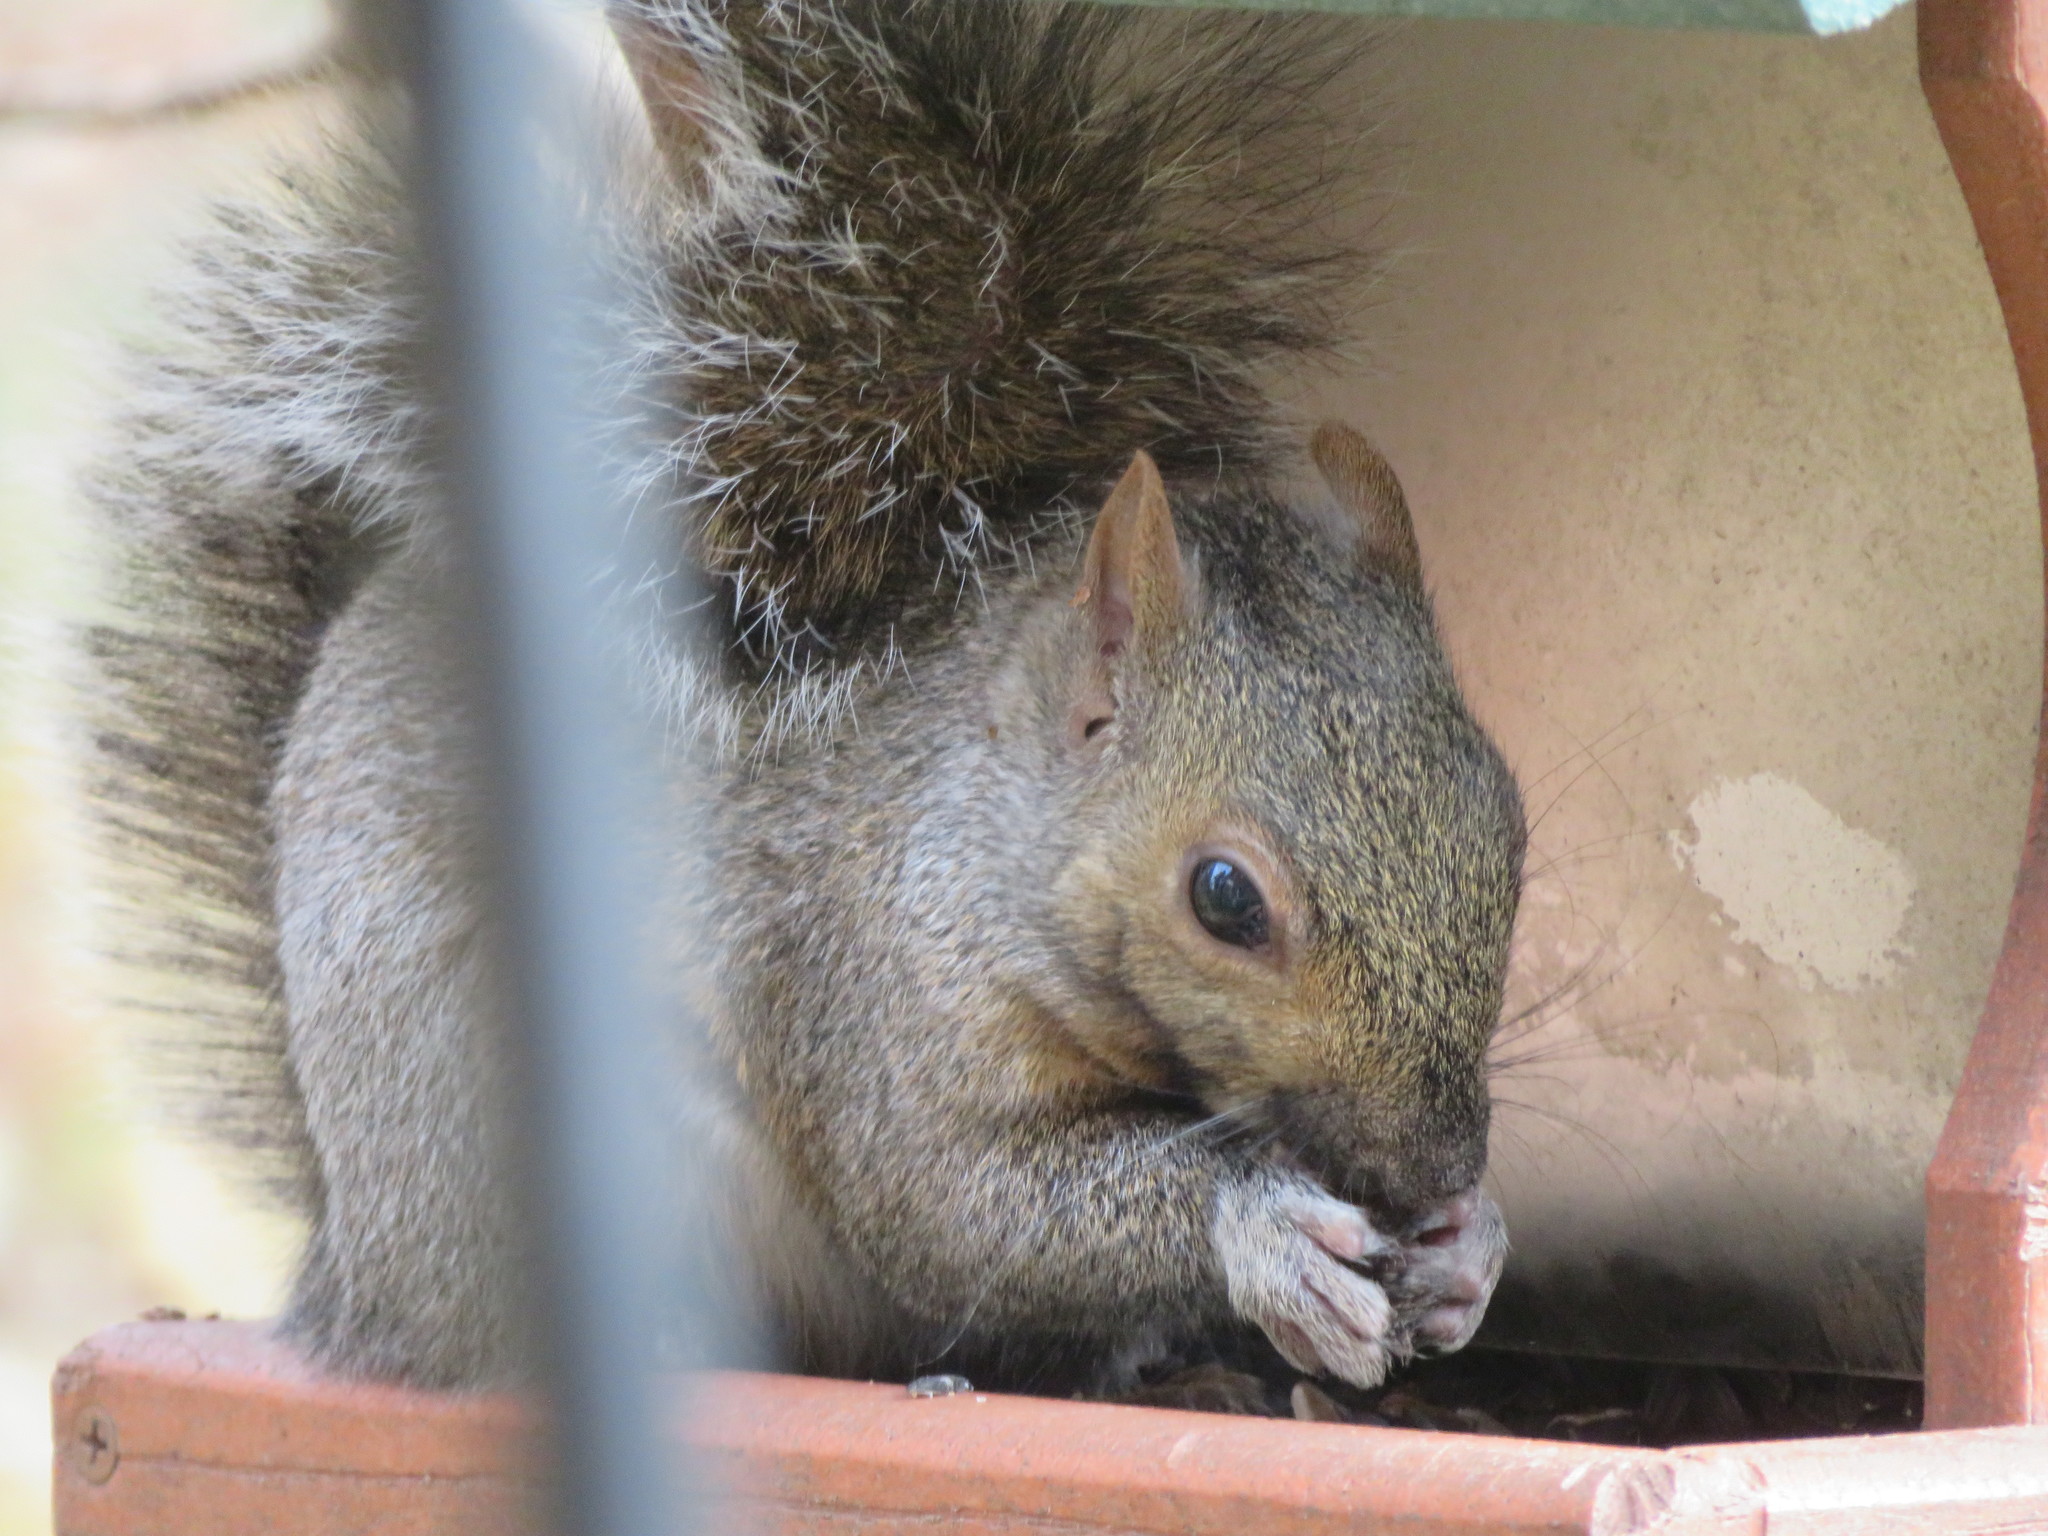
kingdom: Animalia
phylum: Chordata
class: Mammalia
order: Rodentia
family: Sciuridae
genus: Sciurus
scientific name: Sciurus carolinensis
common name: Eastern gray squirrel
